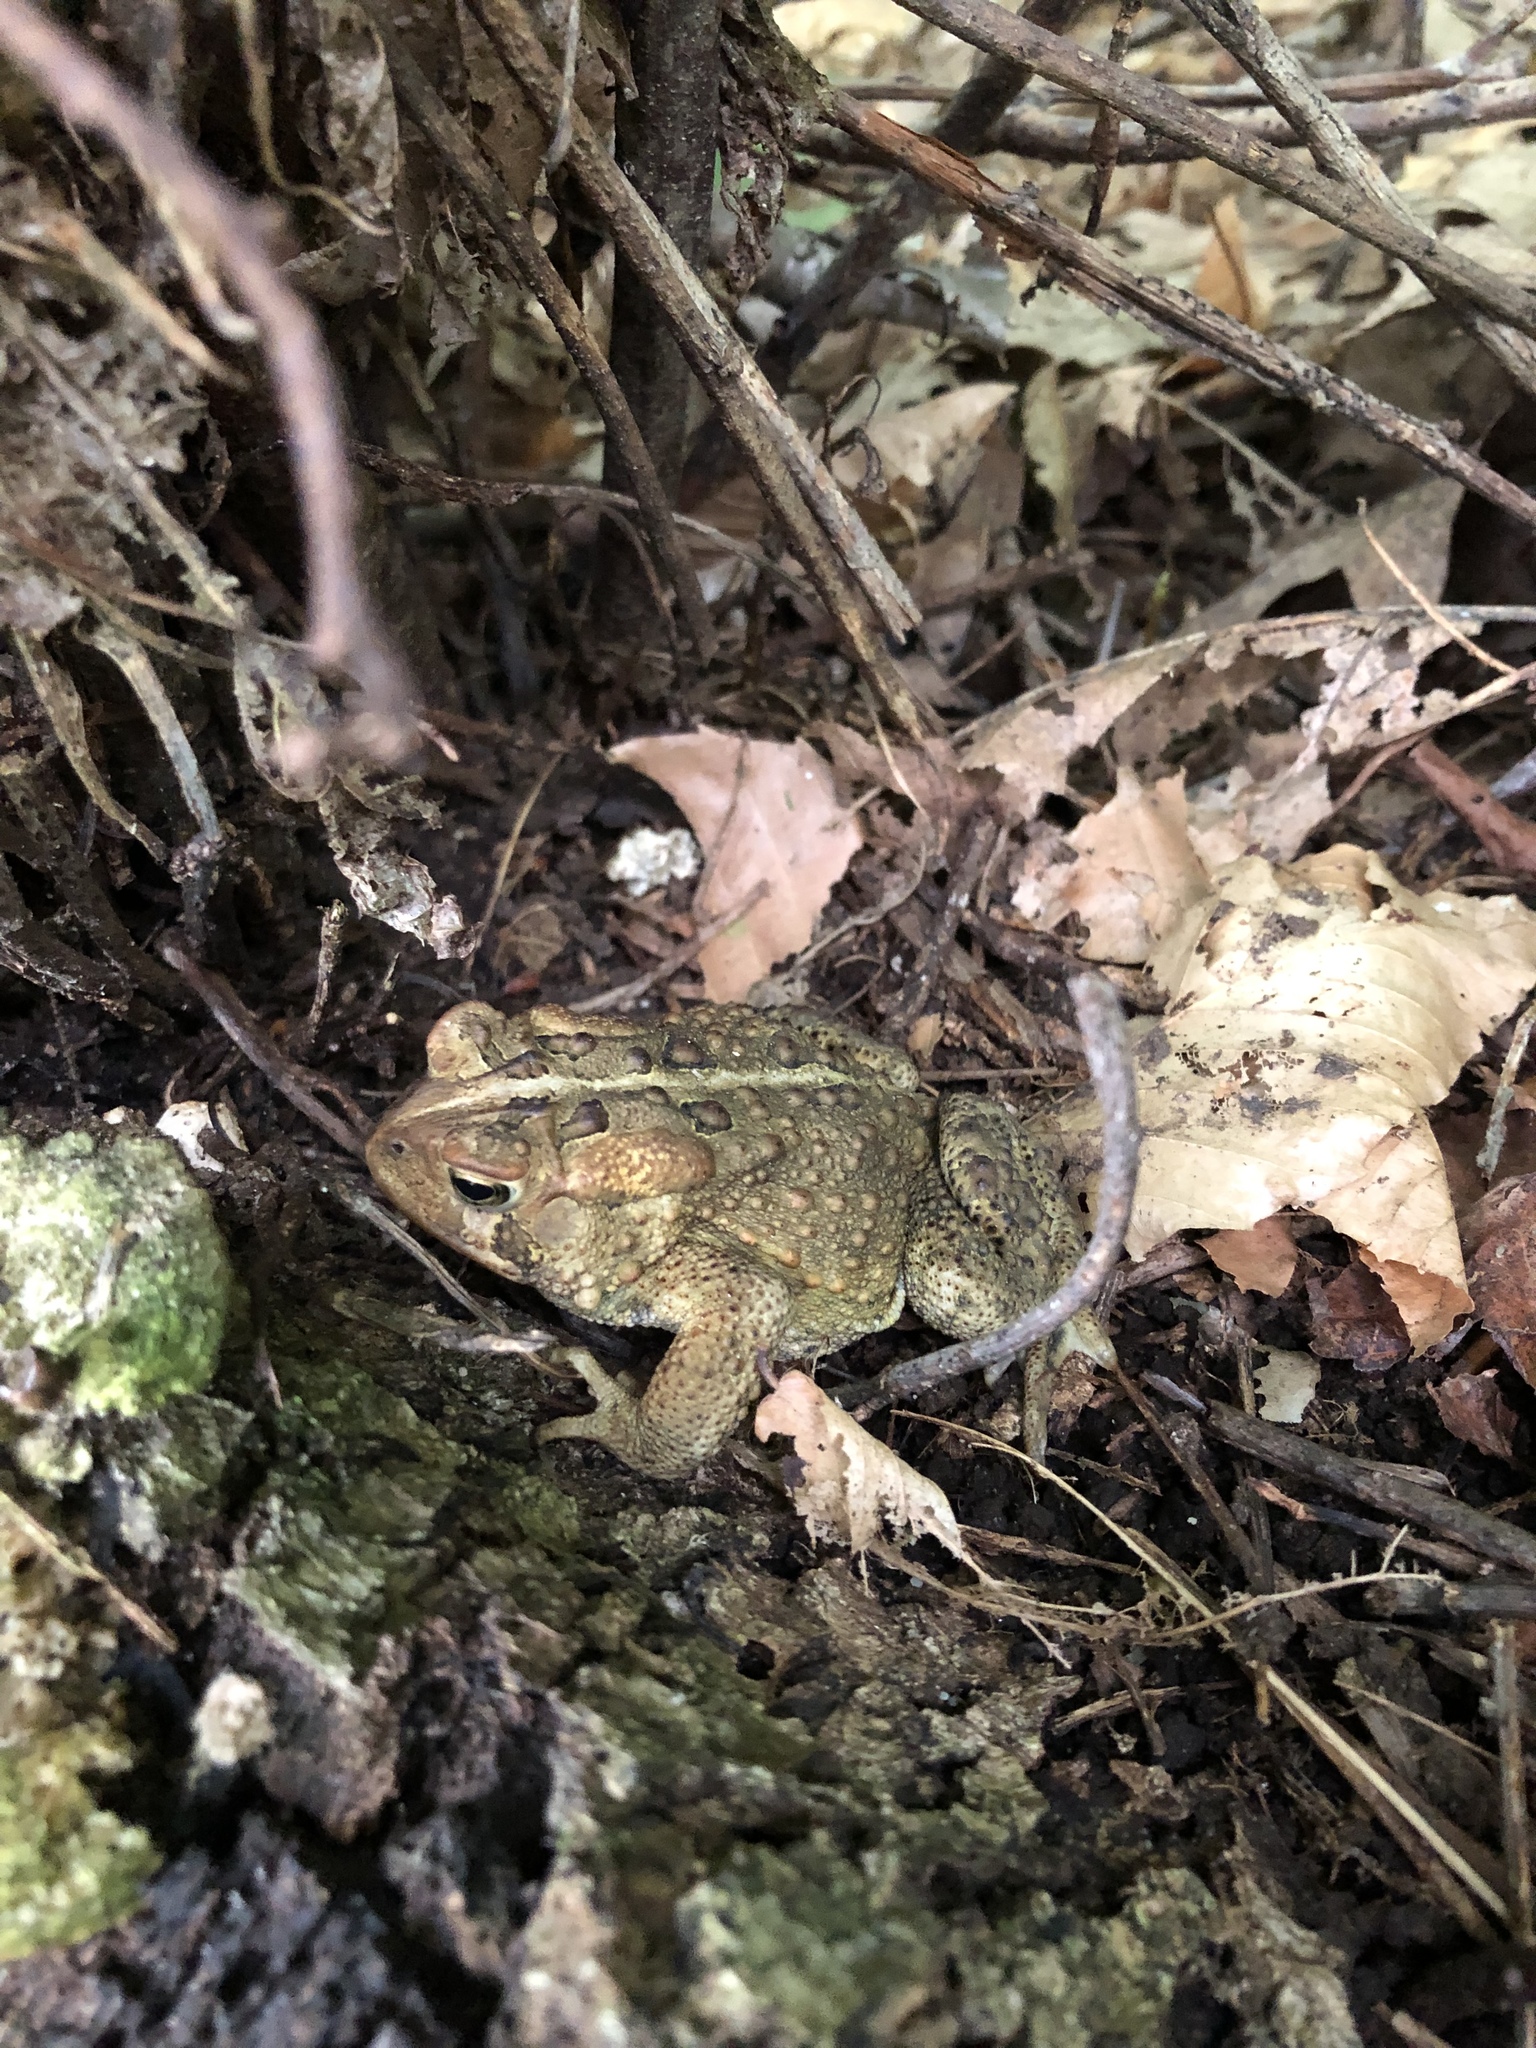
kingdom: Animalia
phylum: Chordata
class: Amphibia
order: Anura
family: Bufonidae
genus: Anaxyrus
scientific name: Anaxyrus americanus
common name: American toad
